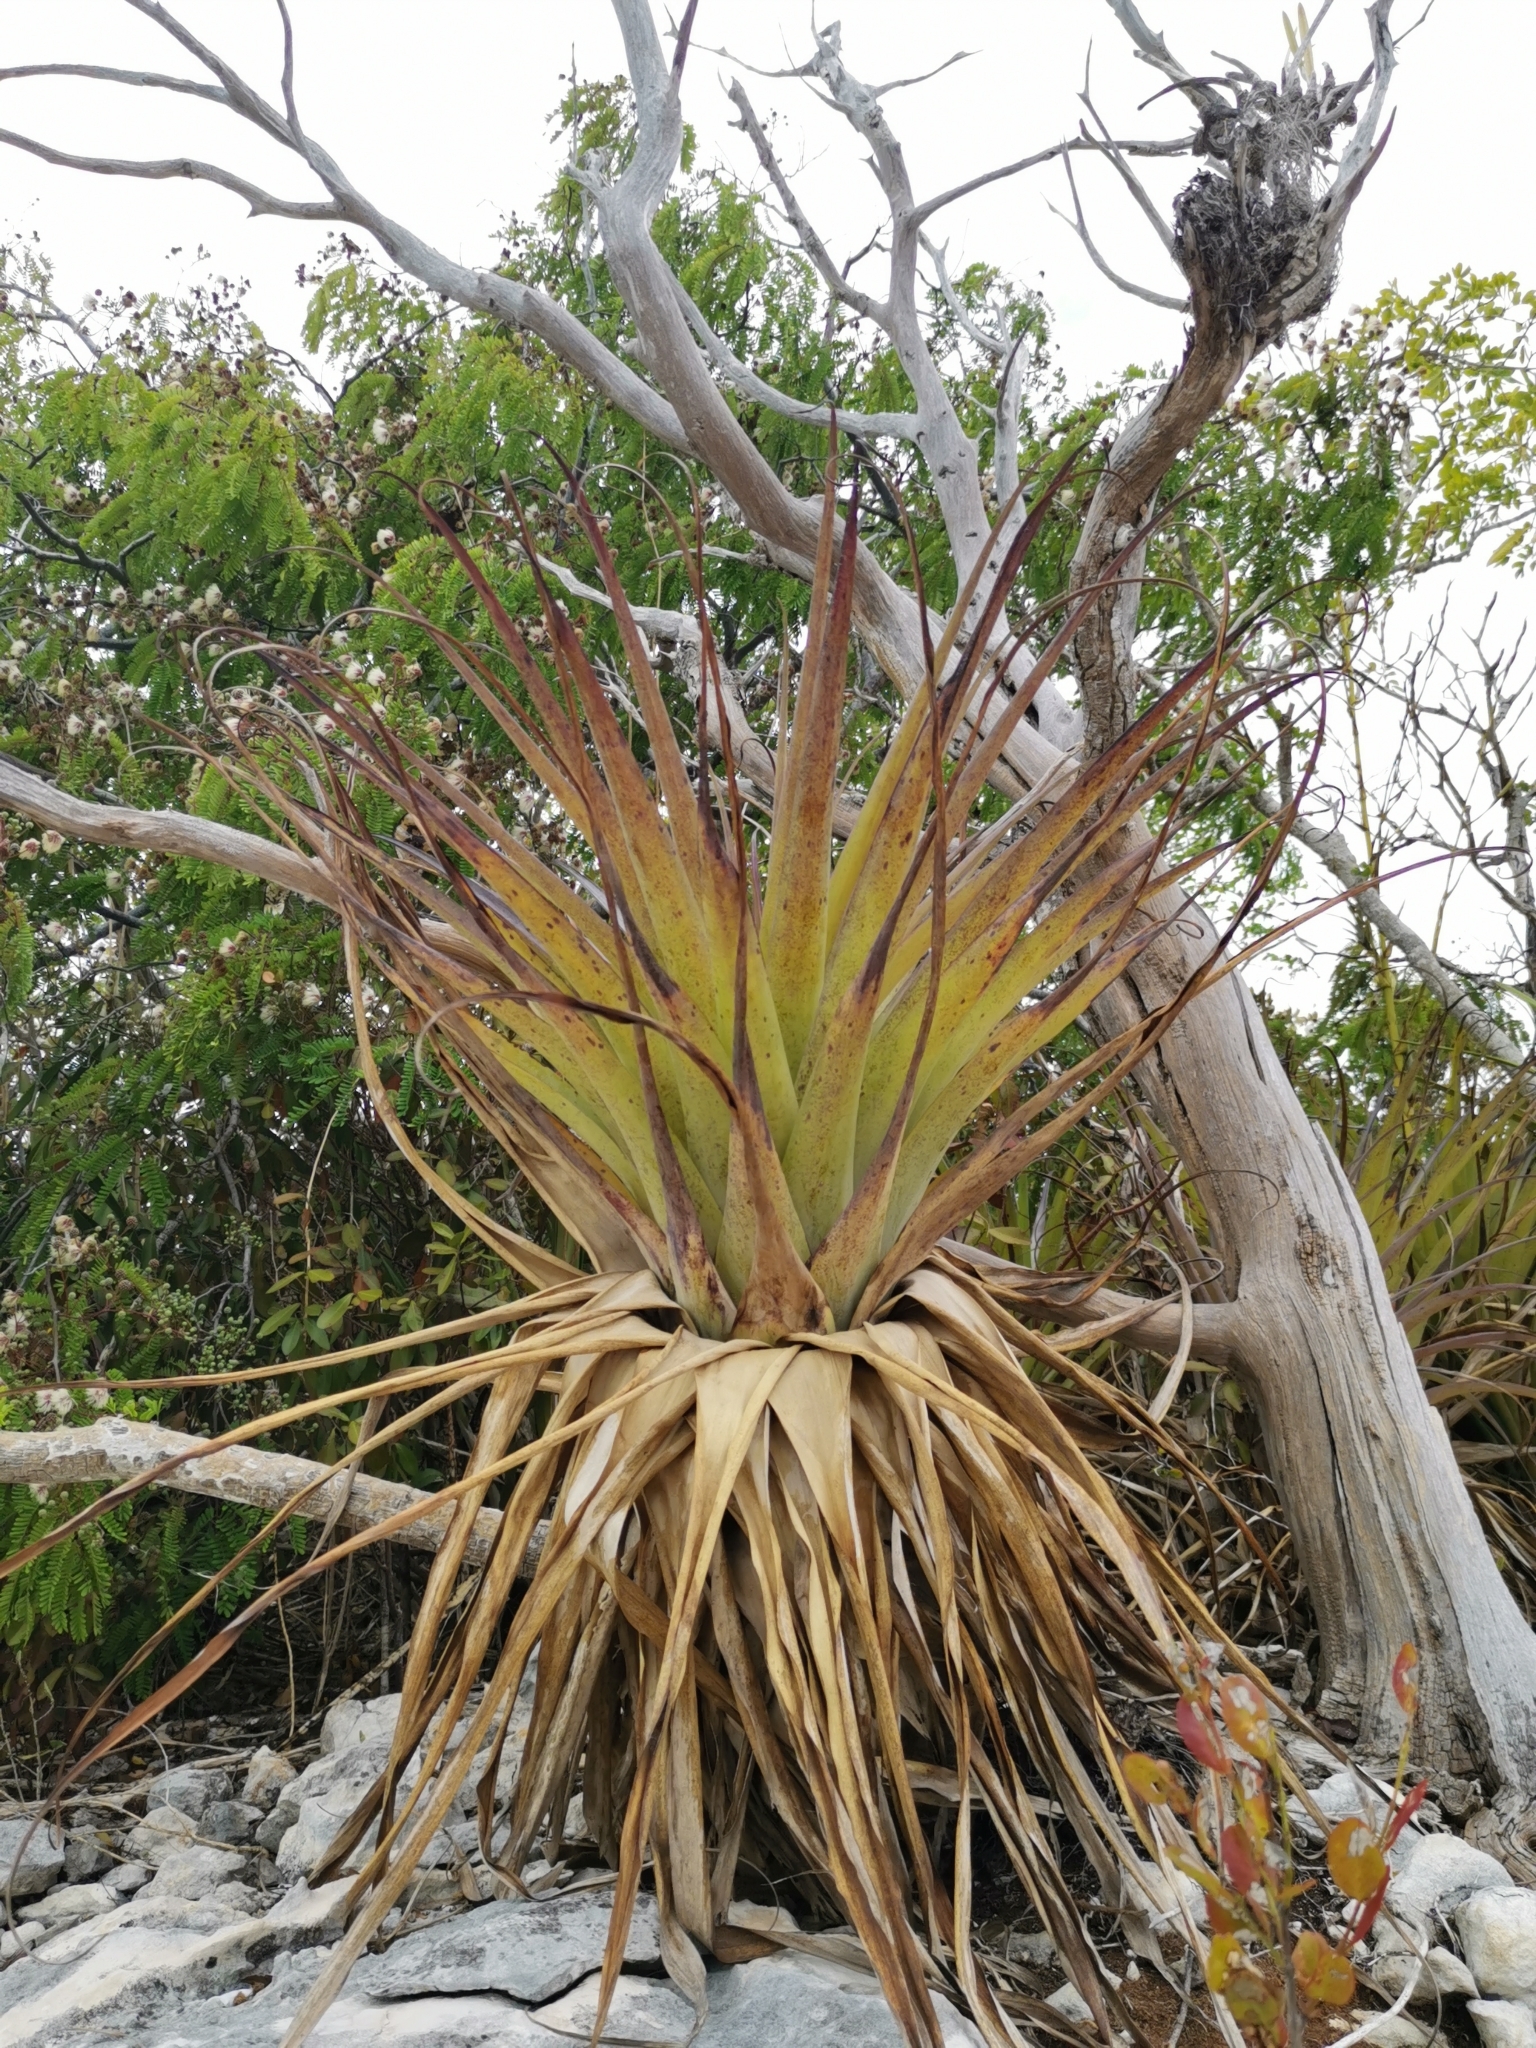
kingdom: Plantae
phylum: Tracheophyta
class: Liliopsida
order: Poales
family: Bromeliaceae
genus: Tillandsia
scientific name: Tillandsia utriculata
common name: Wild pine
